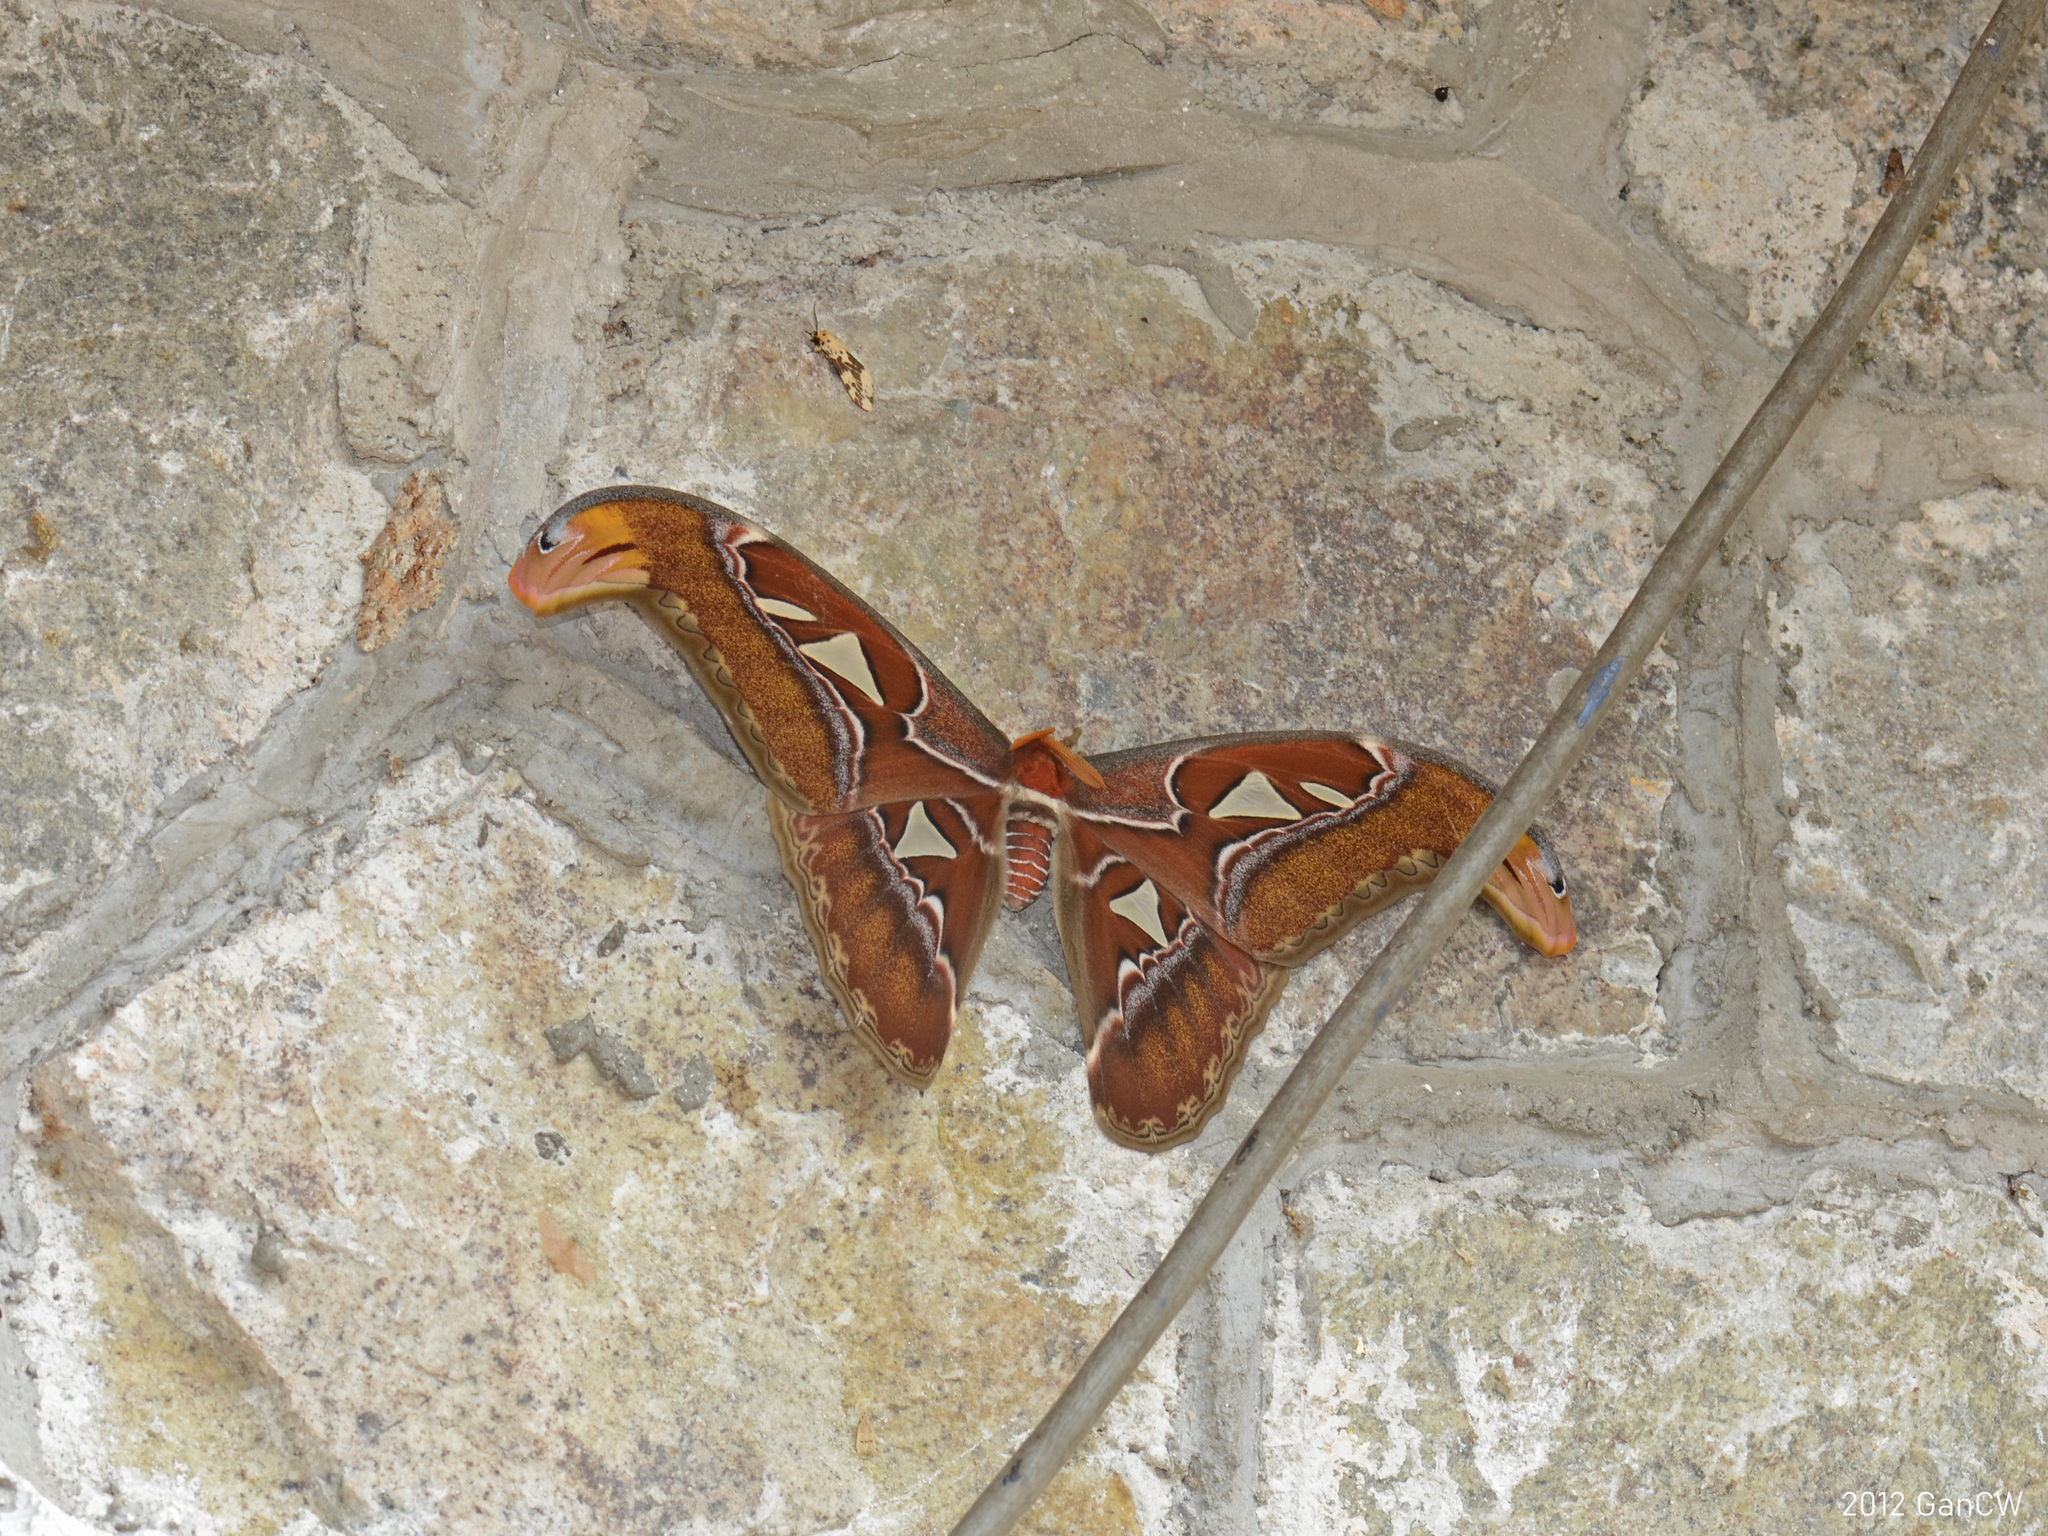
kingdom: Animalia
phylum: Arthropoda
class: Insecta
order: Lepidoptera
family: Saturniidae
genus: Attacus
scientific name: Attacus atlas
